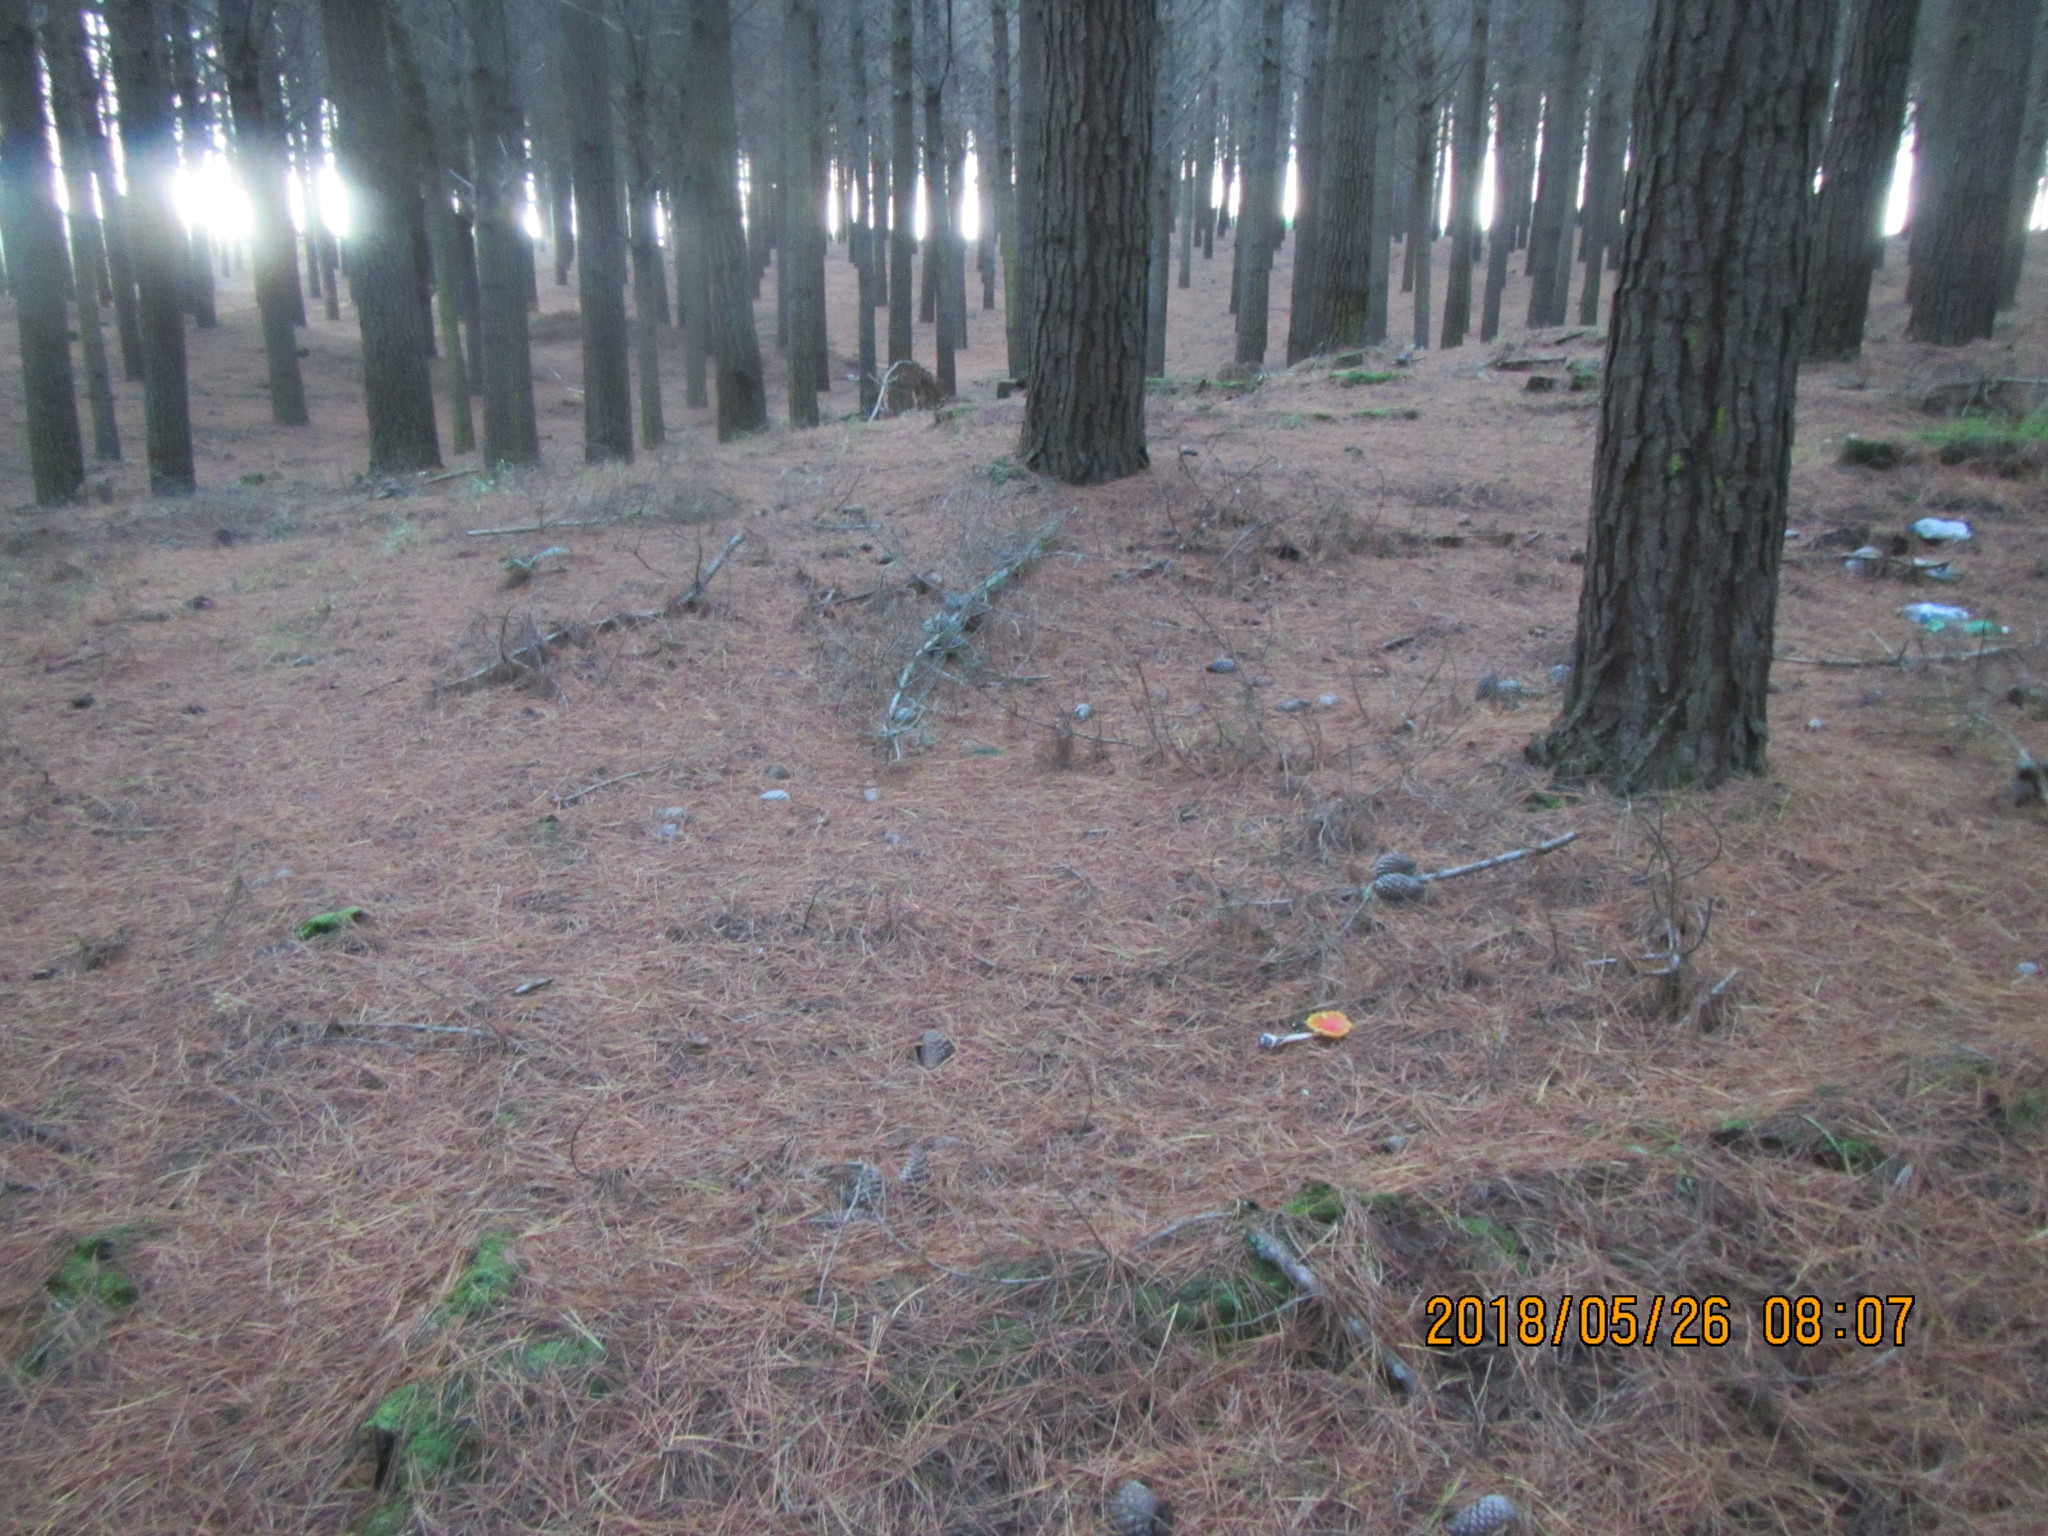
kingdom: Fungi
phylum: Basidiomycota
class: Agaricomycetes
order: Agaricales
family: Amanitaceae
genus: Amanita
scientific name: Amanita muscaria
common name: Fly agaric
